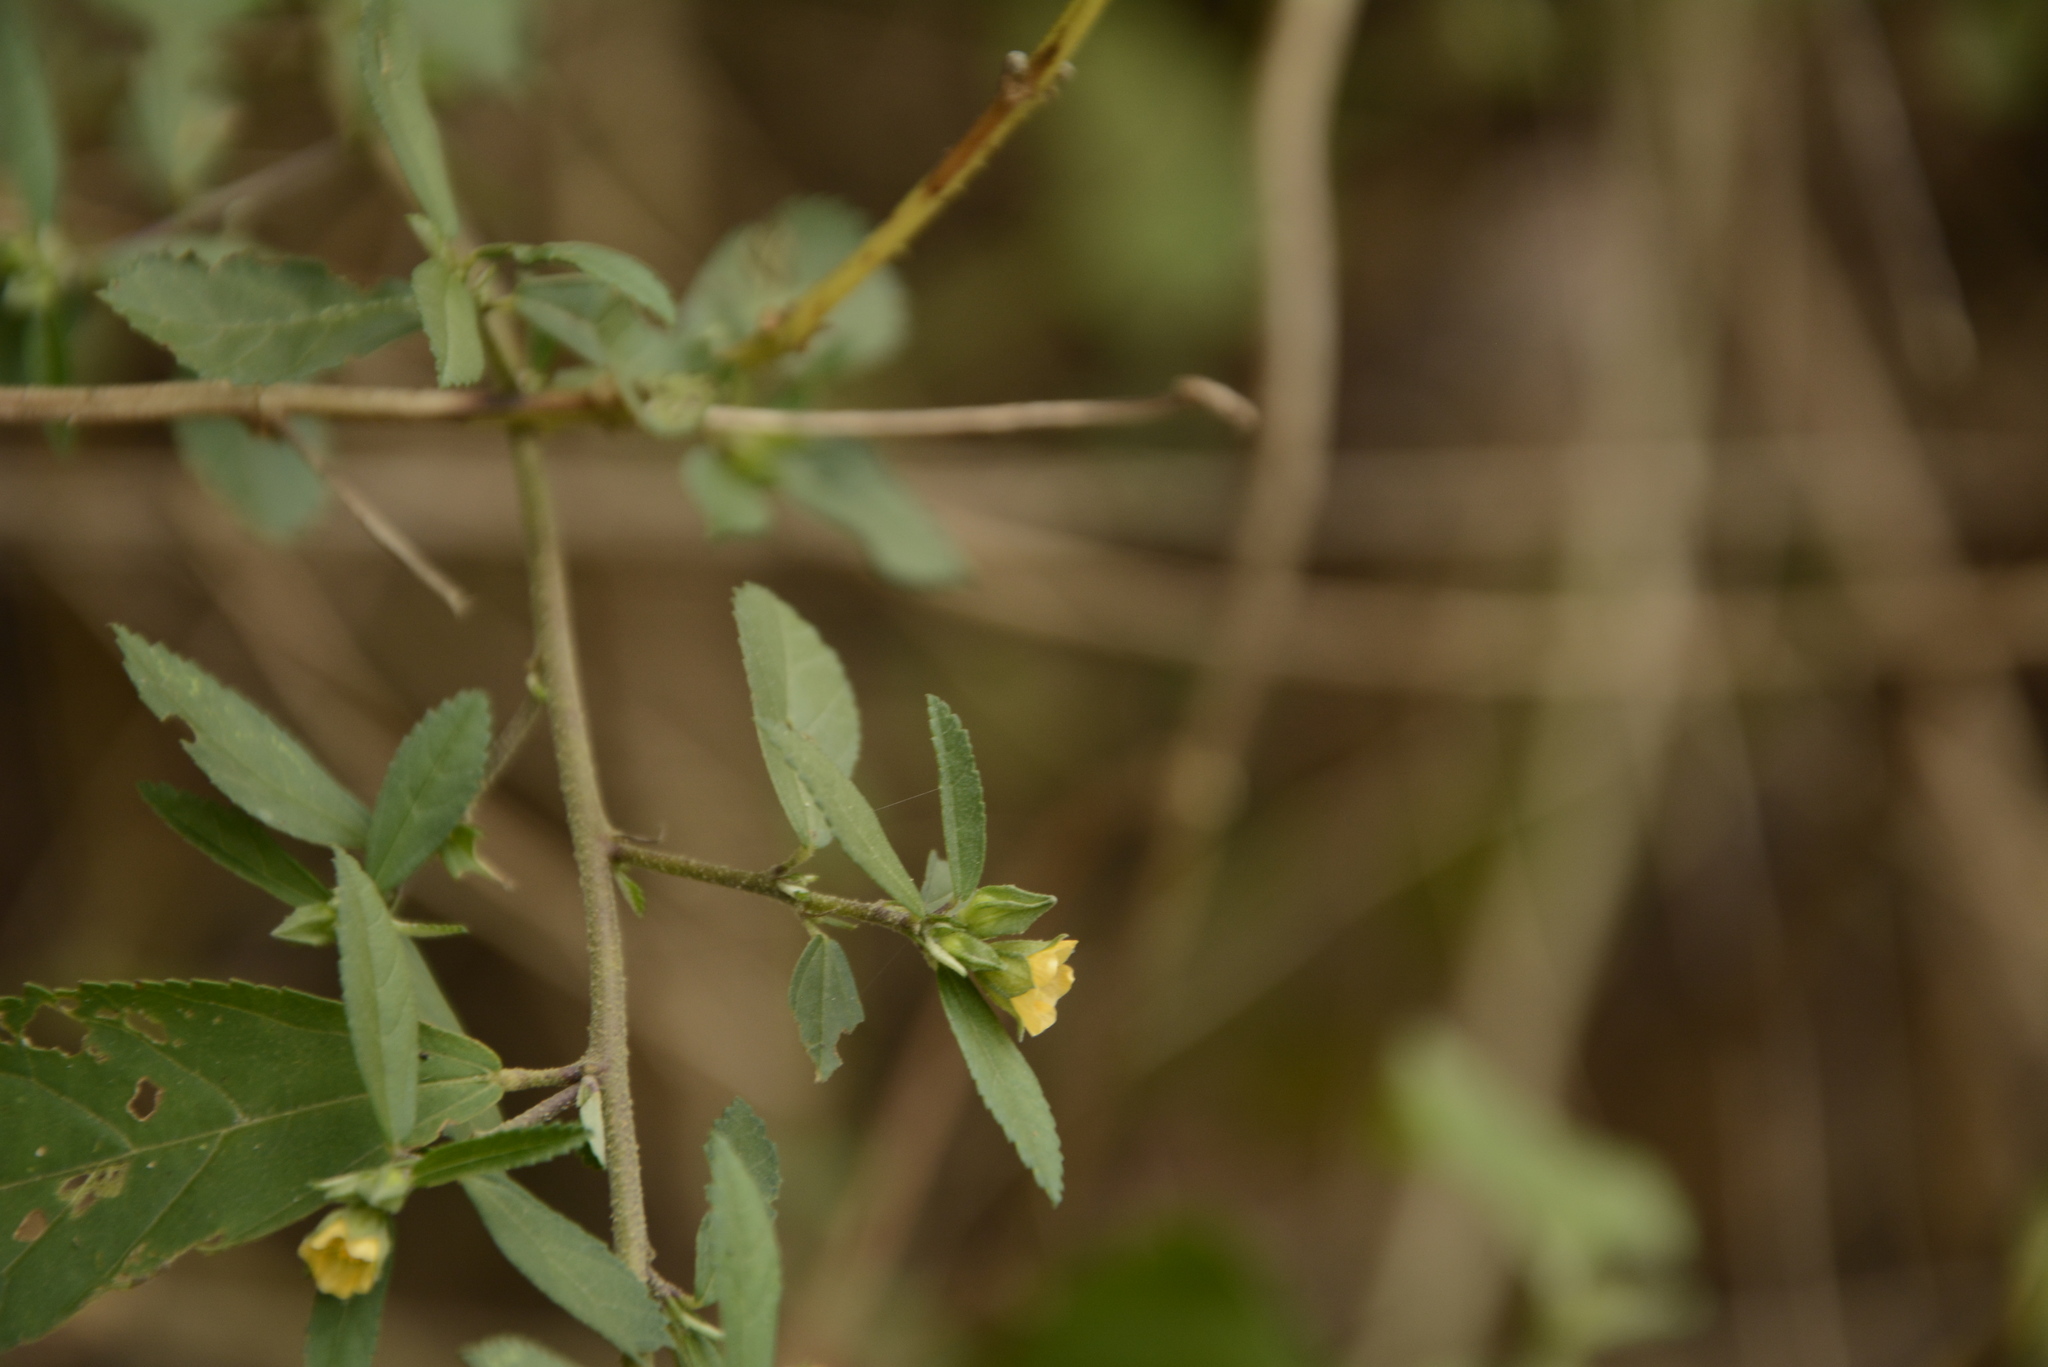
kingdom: Plantae
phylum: Tracheophyta
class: Magnoliopsida
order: Malvales
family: Malvaceae
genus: Sida
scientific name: Sida rhombifolia
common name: Queensland-hemp
